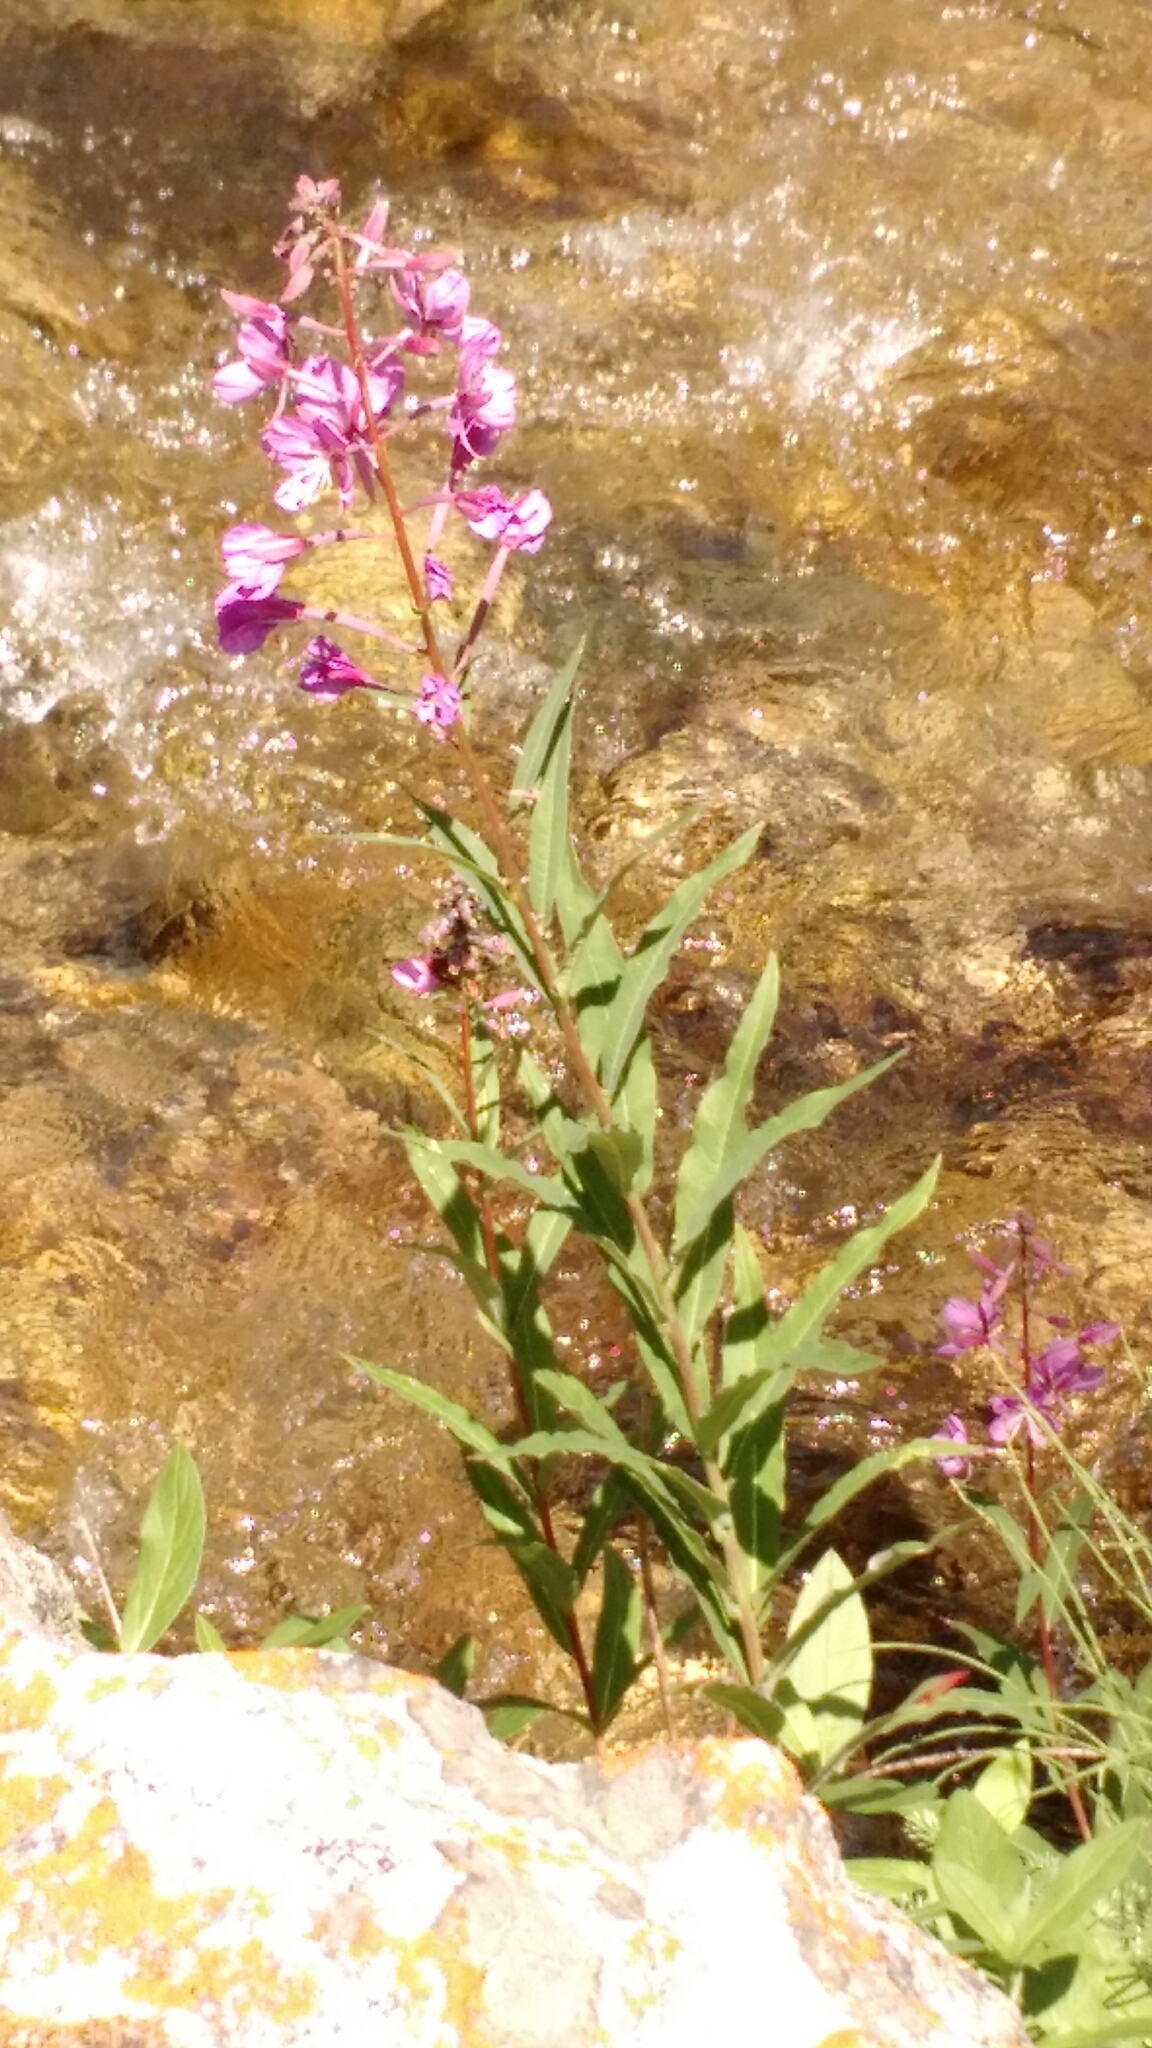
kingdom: Plantae
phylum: Tracheophyta
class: Magnoliopsida
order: Myrtales
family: Onagraceae
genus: Chamaenerion
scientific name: Chamaenerion angustifolium
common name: Fireweed
